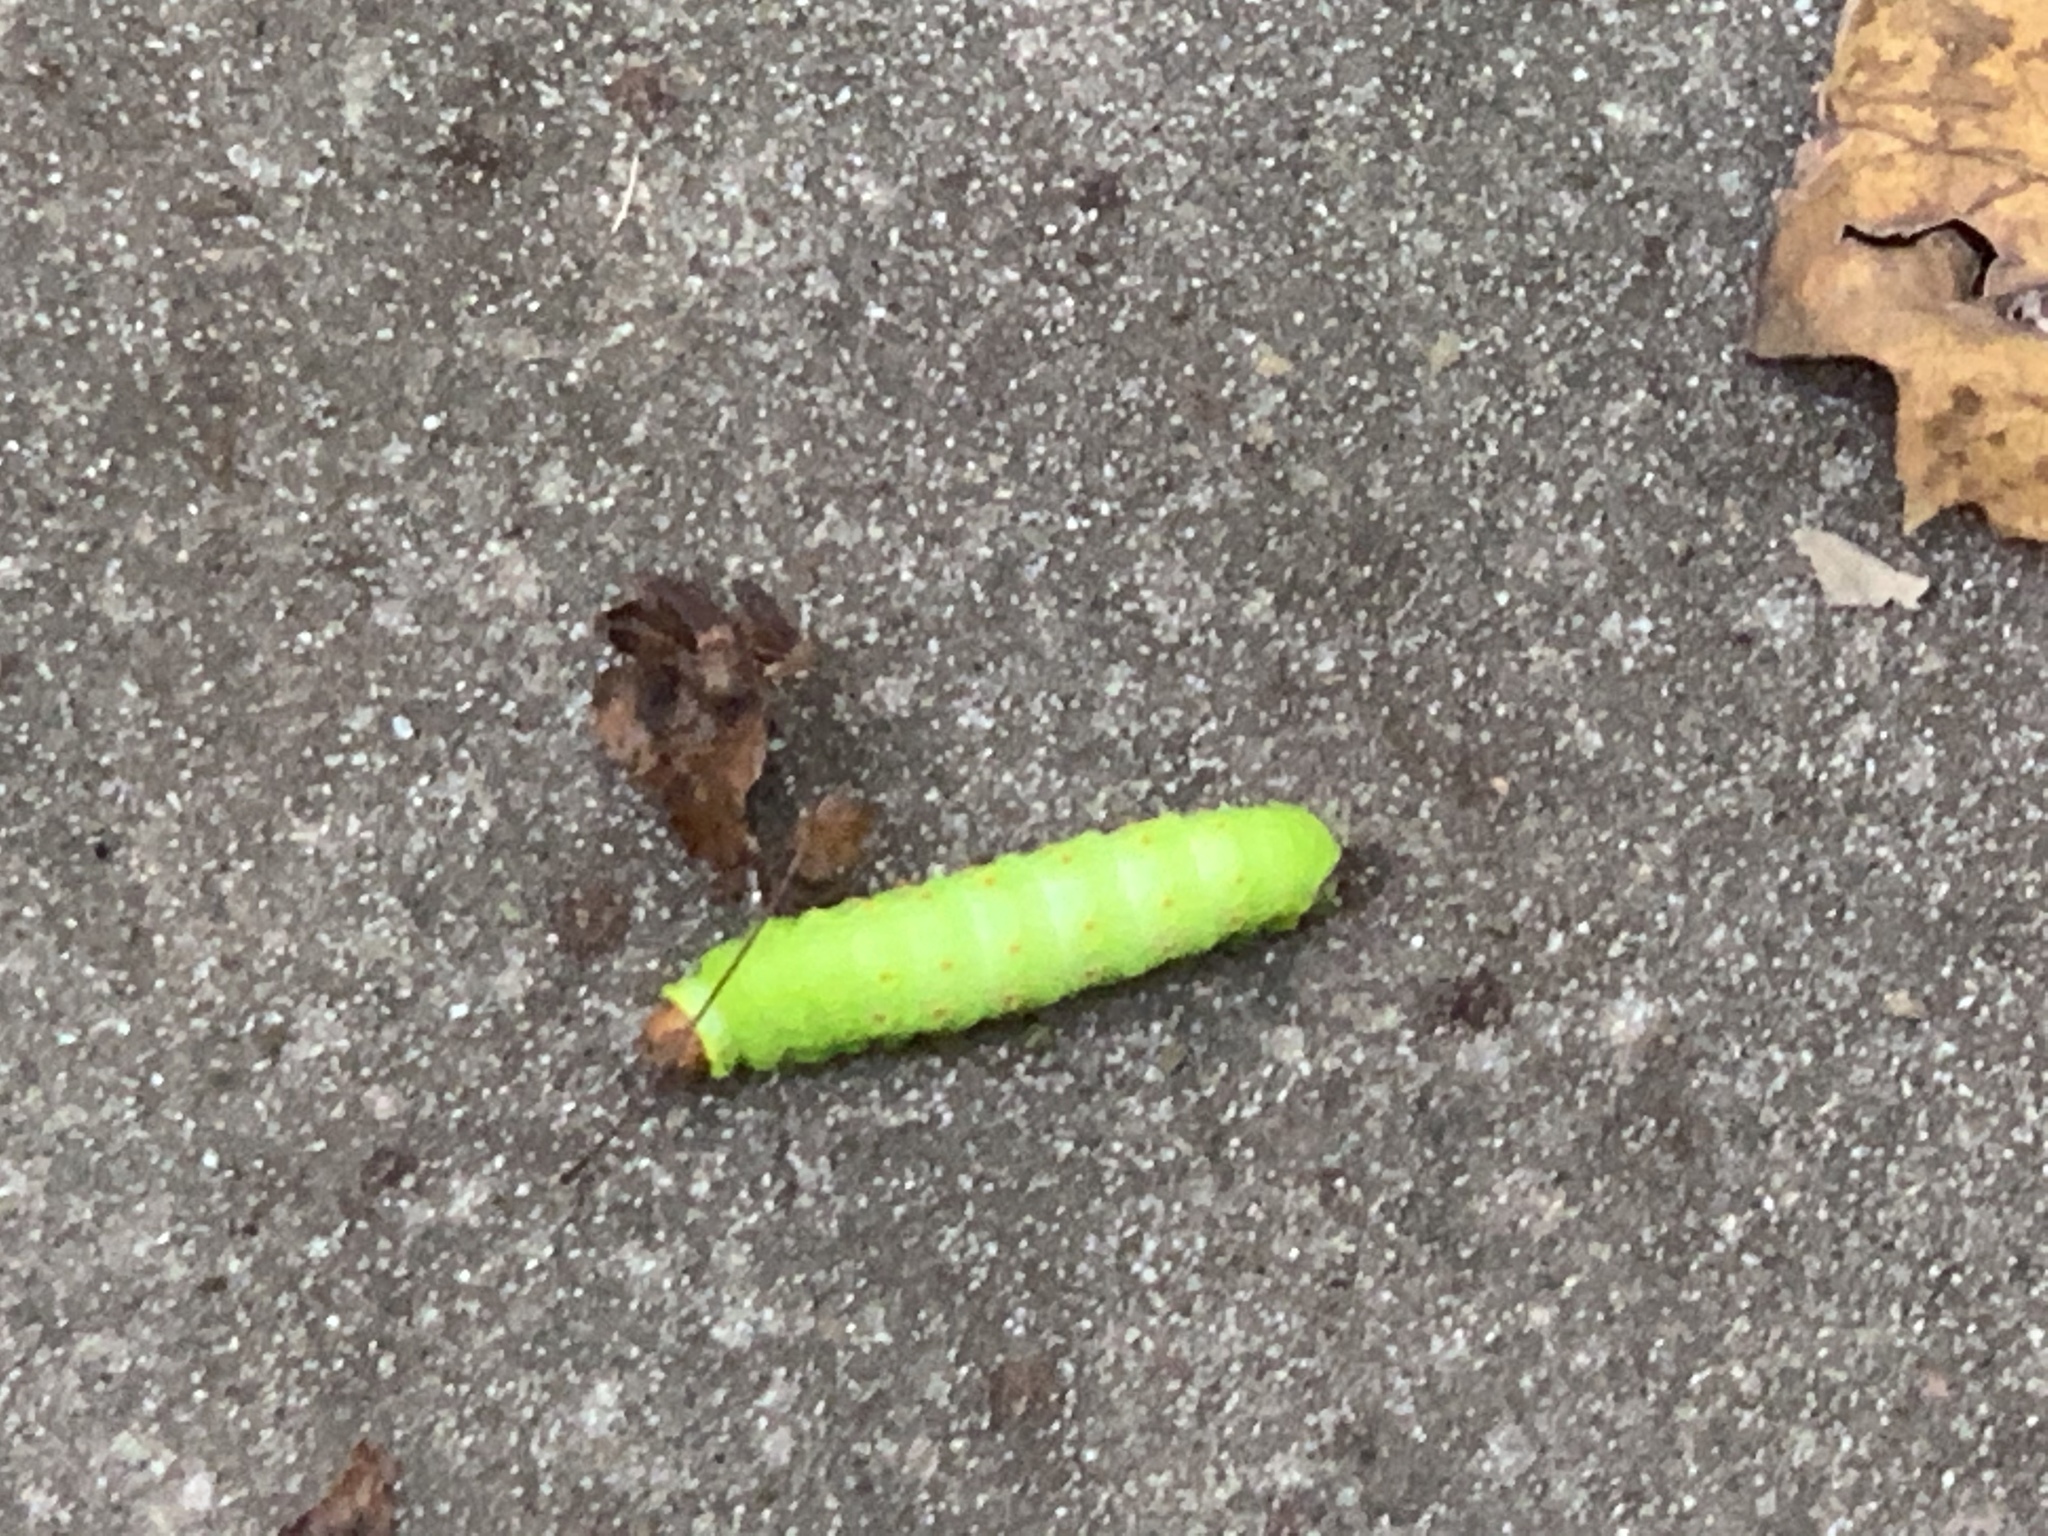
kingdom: Animalia
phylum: Arthropoda
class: Insecta
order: Lepidoptera
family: Saturniidae
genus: Antheraea
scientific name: Antheraea polyphemus
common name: Polyphemus moth
